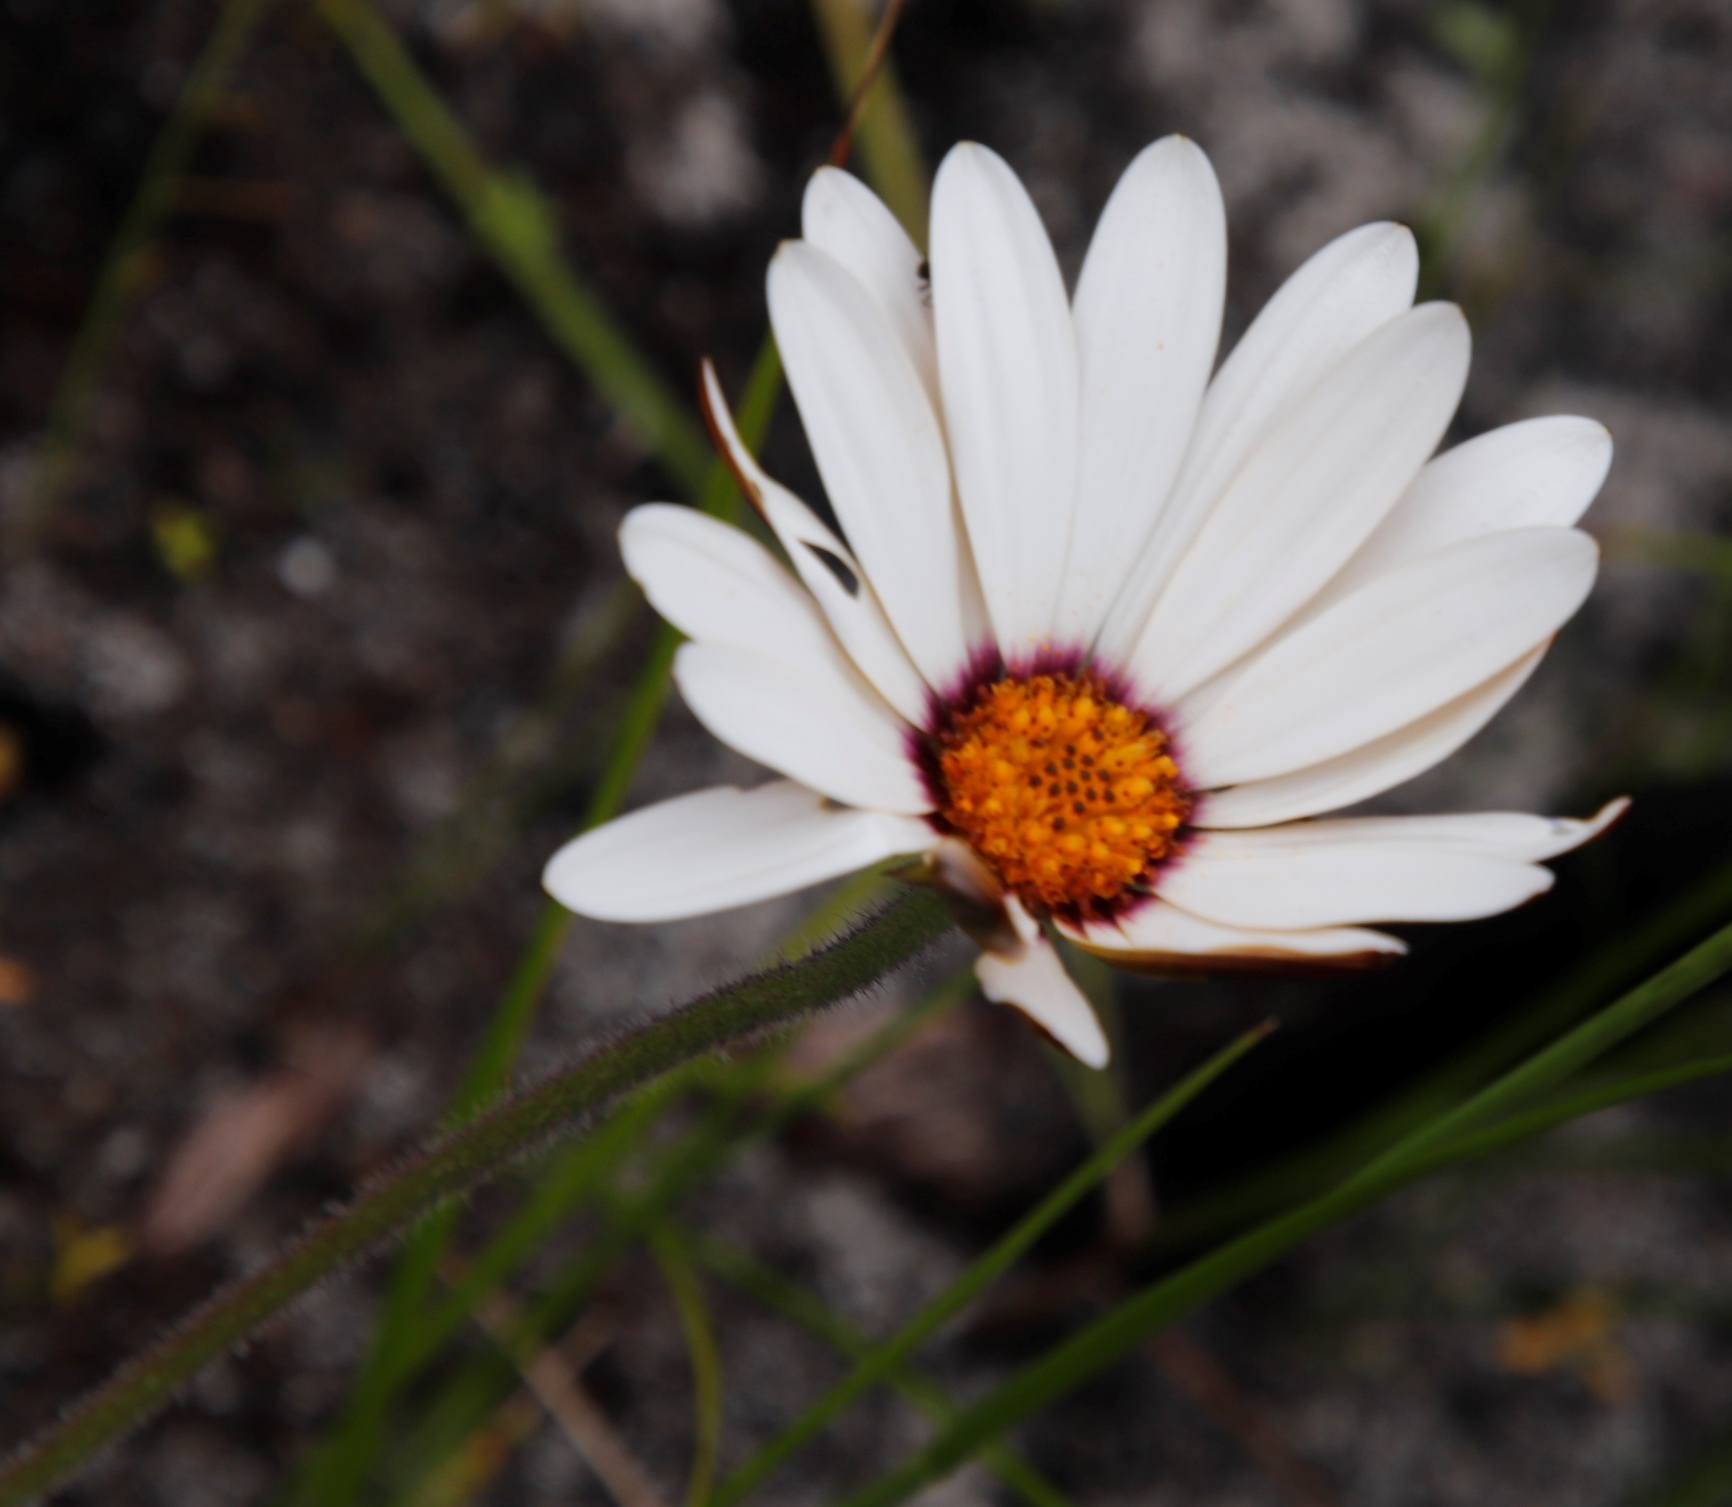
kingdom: Plantae
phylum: Tracheophyta
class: Magnoliopsida
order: Asterales
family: Asteraceae
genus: Dimorphotheca
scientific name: Dimorphotheca nudicaulis
